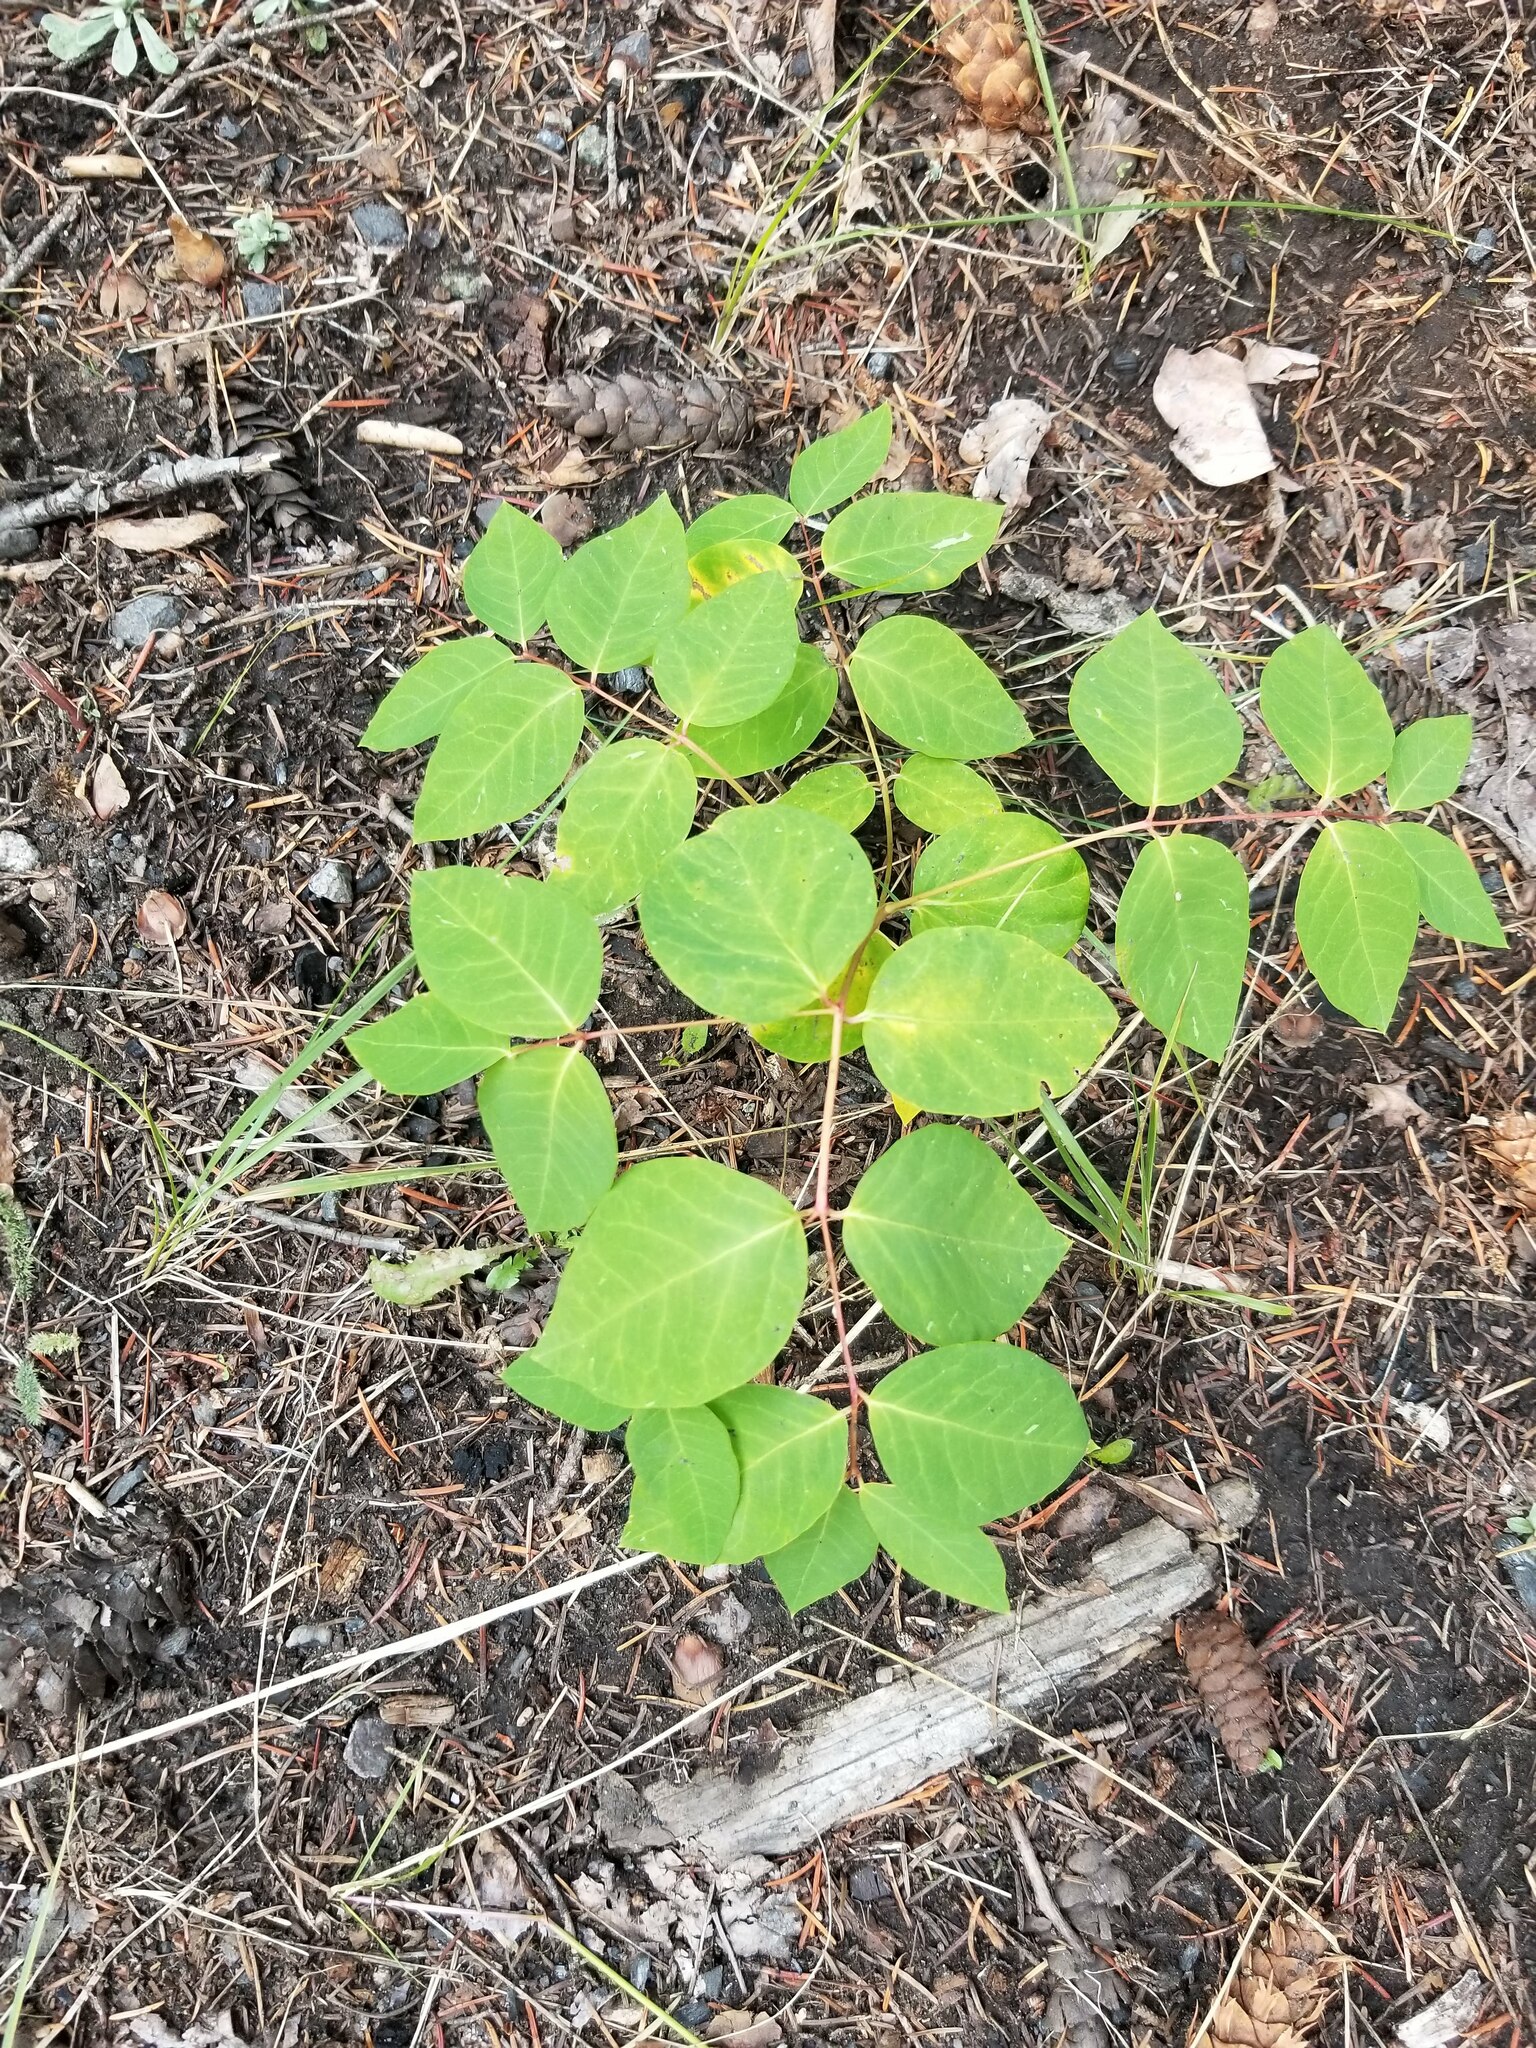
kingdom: Plantae
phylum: Tracheophyta
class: Magnoliopsida
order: Gentianales
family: Apocynaceae
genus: Apocynum
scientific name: Apocynum androsaemifolium
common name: Spreading dogbane
